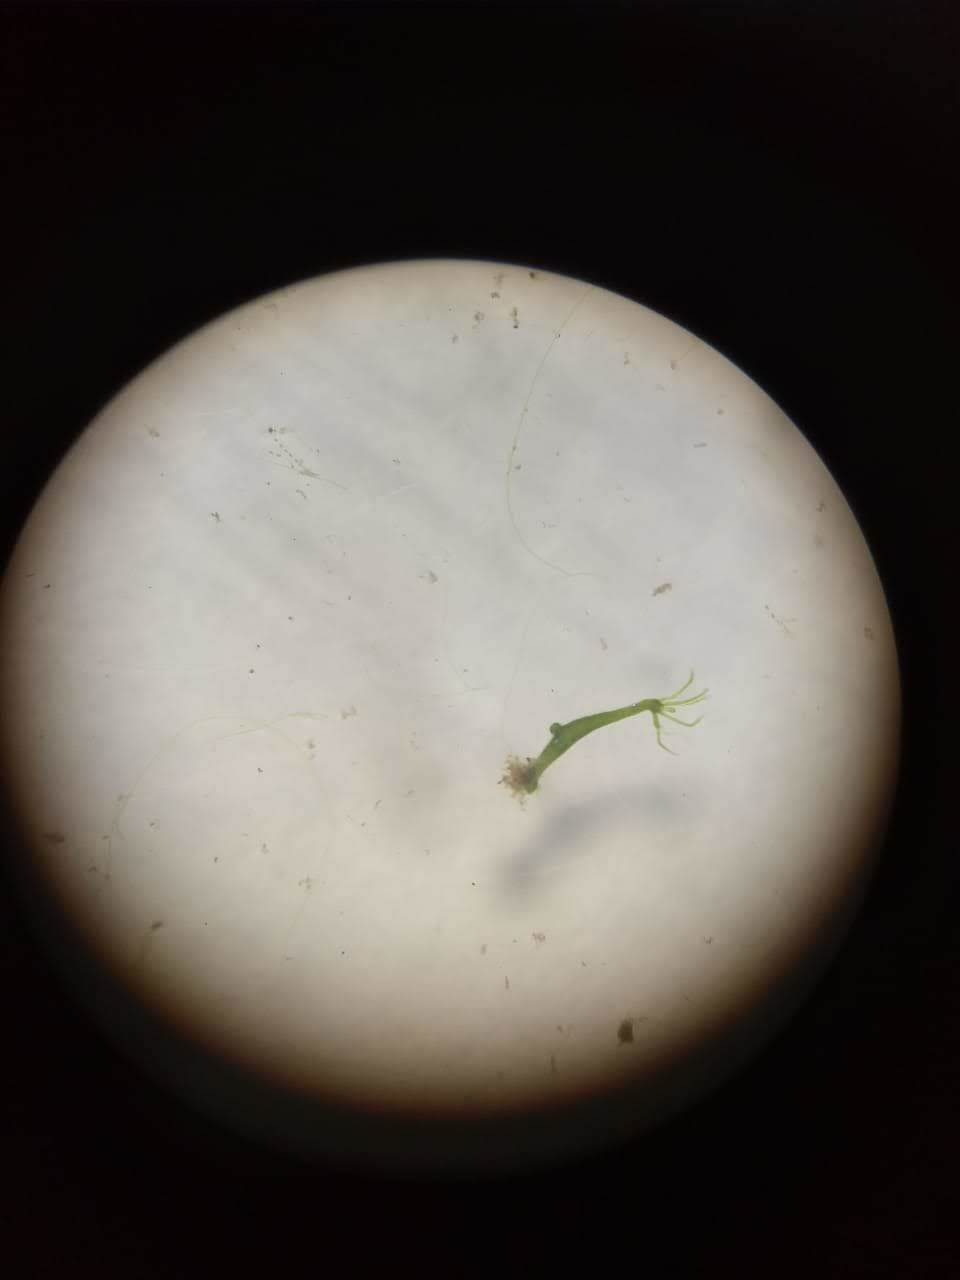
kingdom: Animalia
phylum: Cnidaria
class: Hydrozoa
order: Anthoathecata
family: Hydridae
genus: Hydra
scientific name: Hydra viridissima
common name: Green hydra
